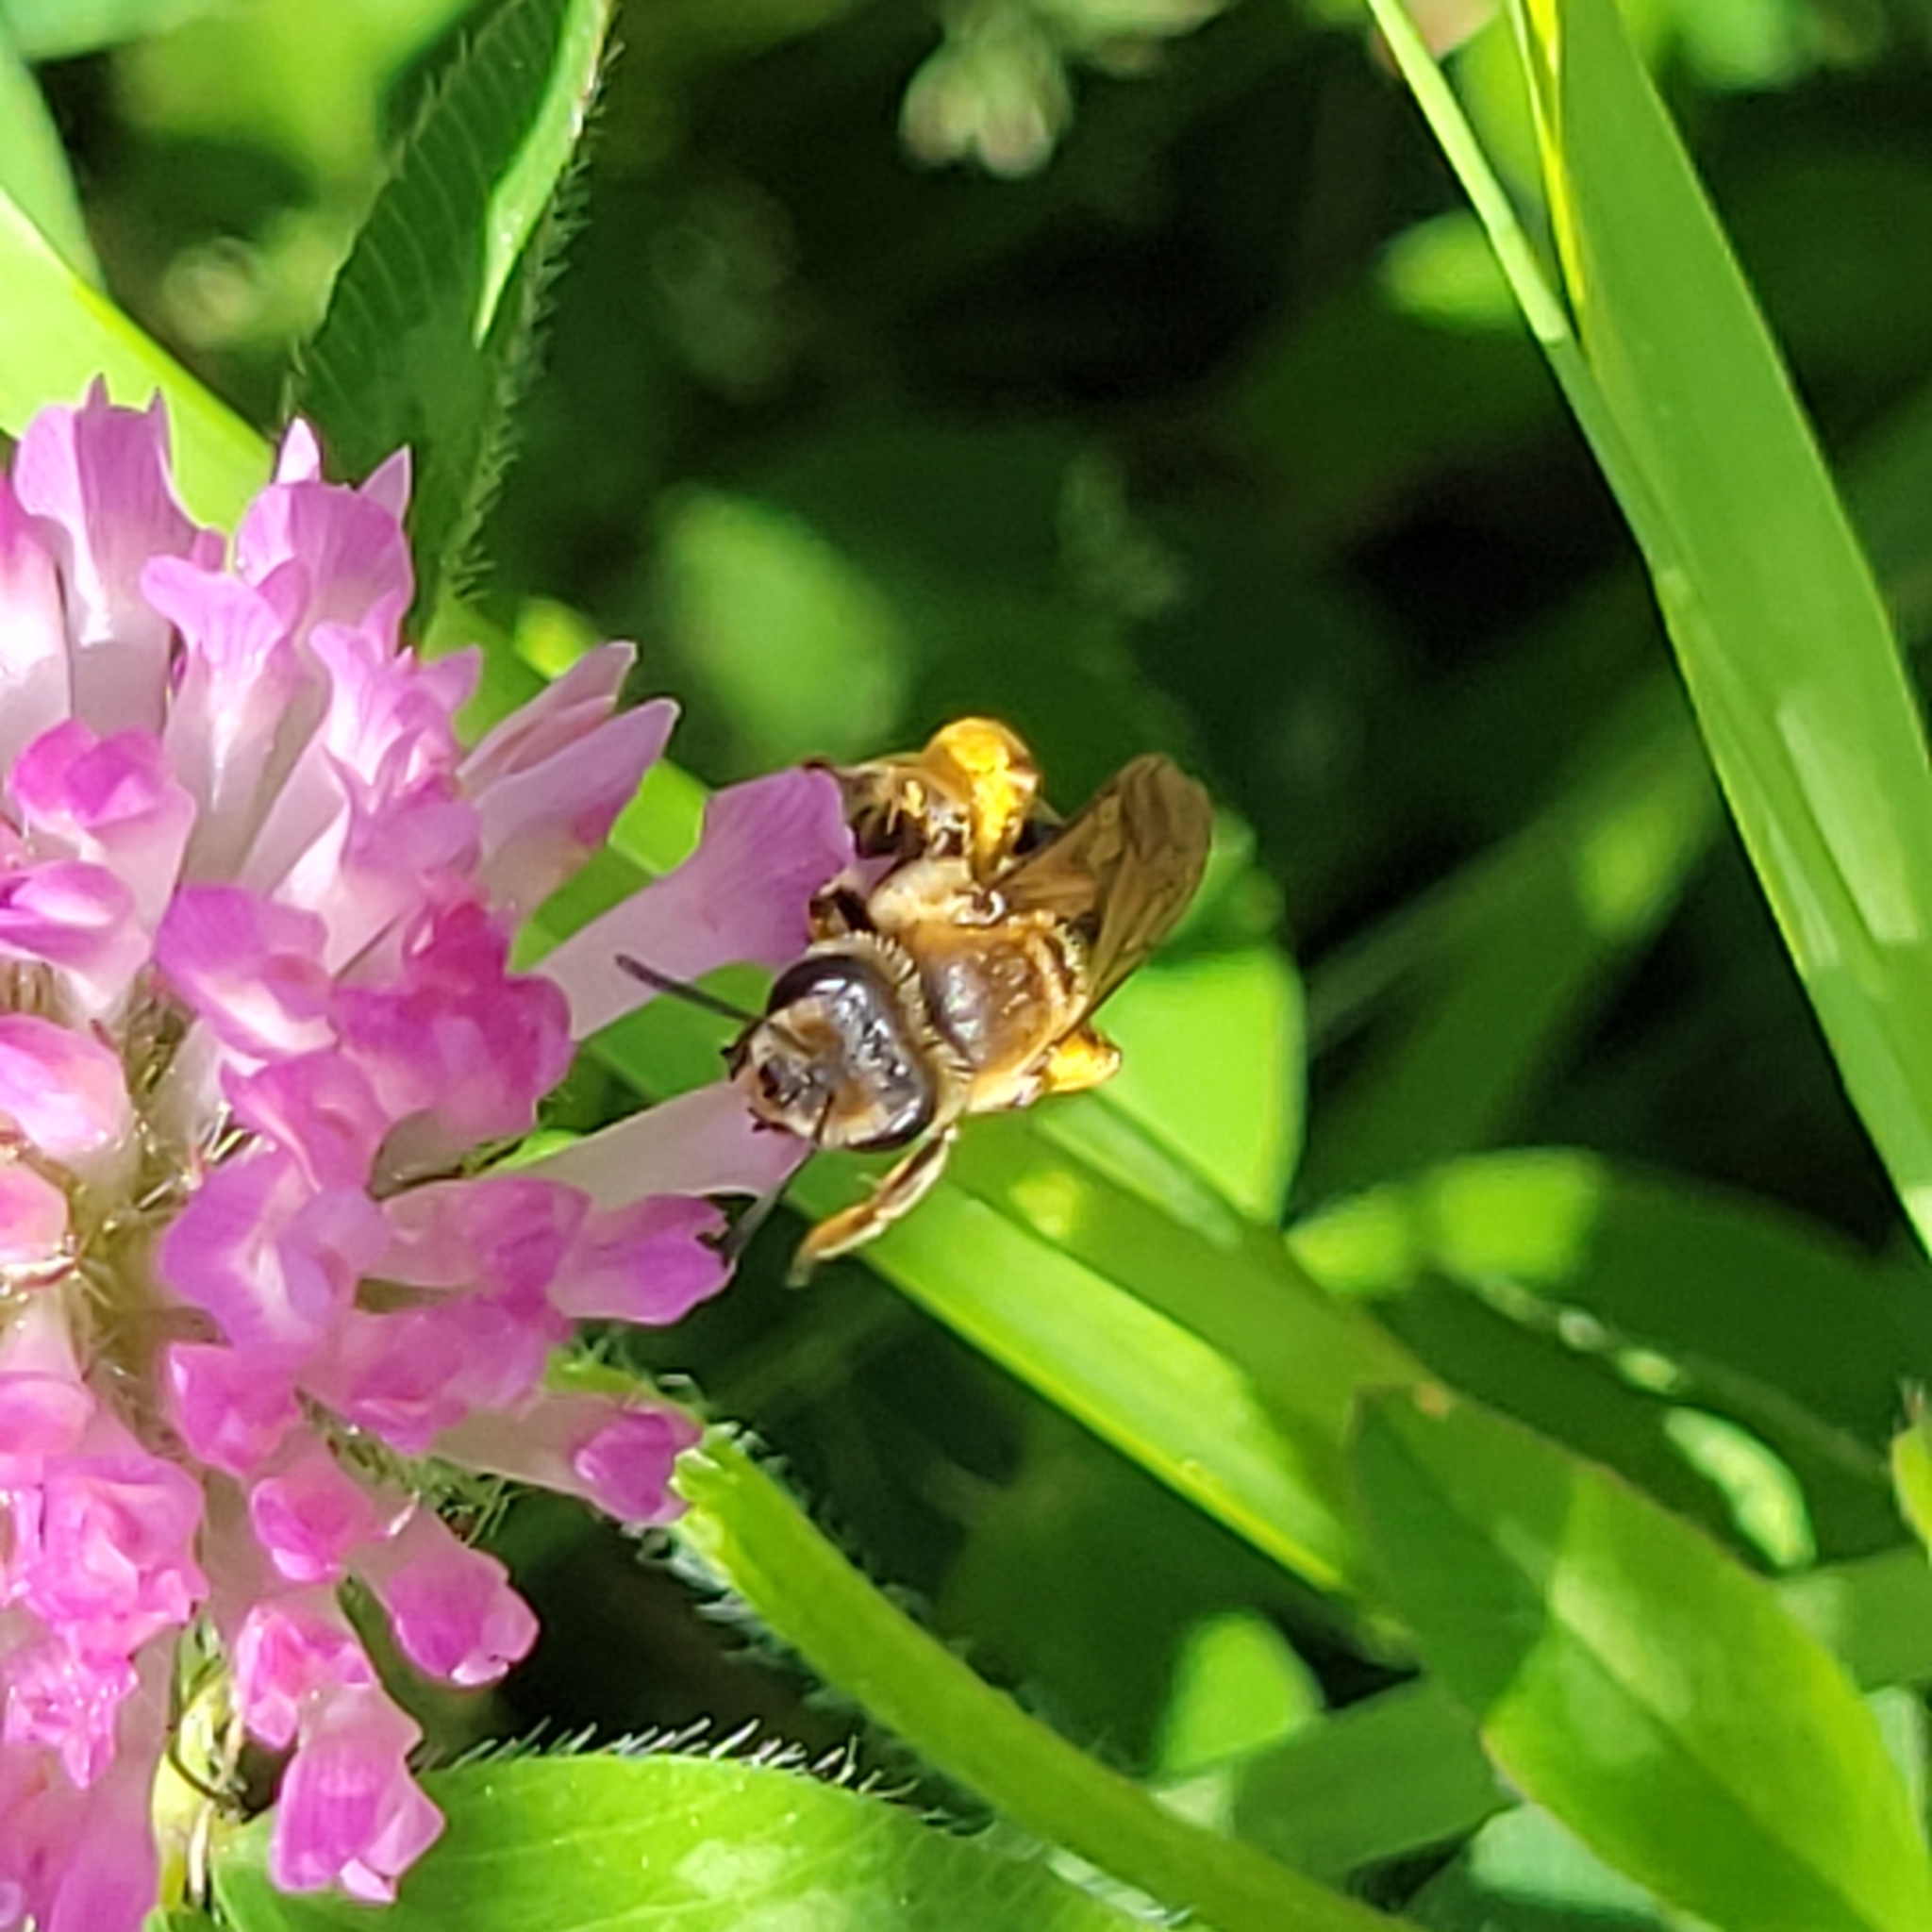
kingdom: Animalia
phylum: Arthropoda
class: Insecta
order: Hymenoptera
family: Andrenidae
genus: Andrena
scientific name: Andrena wilkella
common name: Wilke's mining bee
